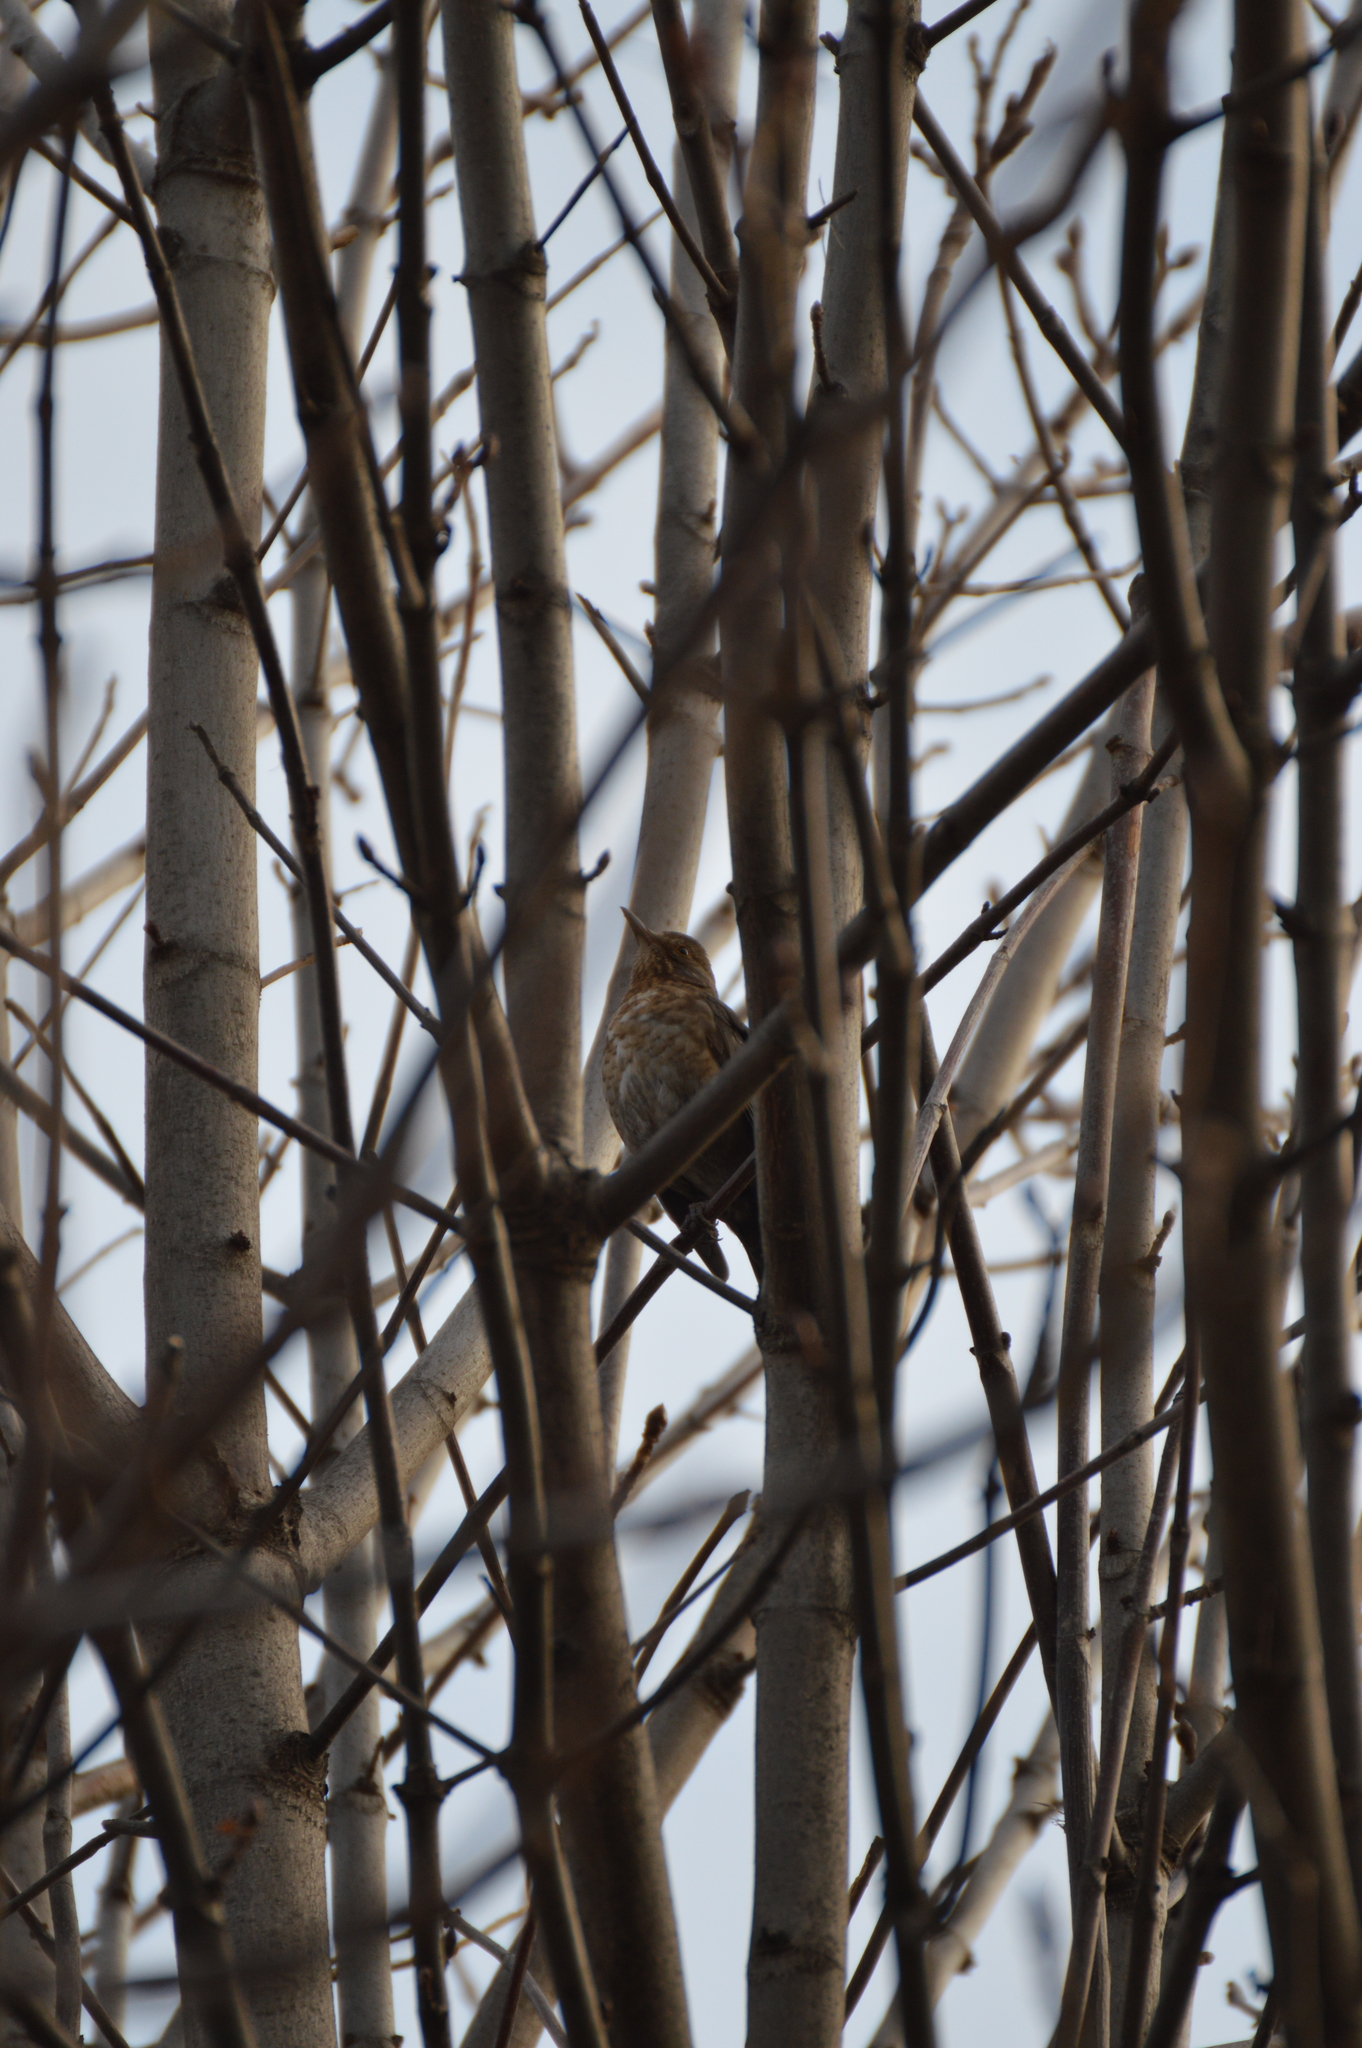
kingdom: Animalia
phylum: Chordata
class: Aves
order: Passeriformes
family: Turdidae
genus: Turdus
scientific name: Turdus merula
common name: Common blackbird
